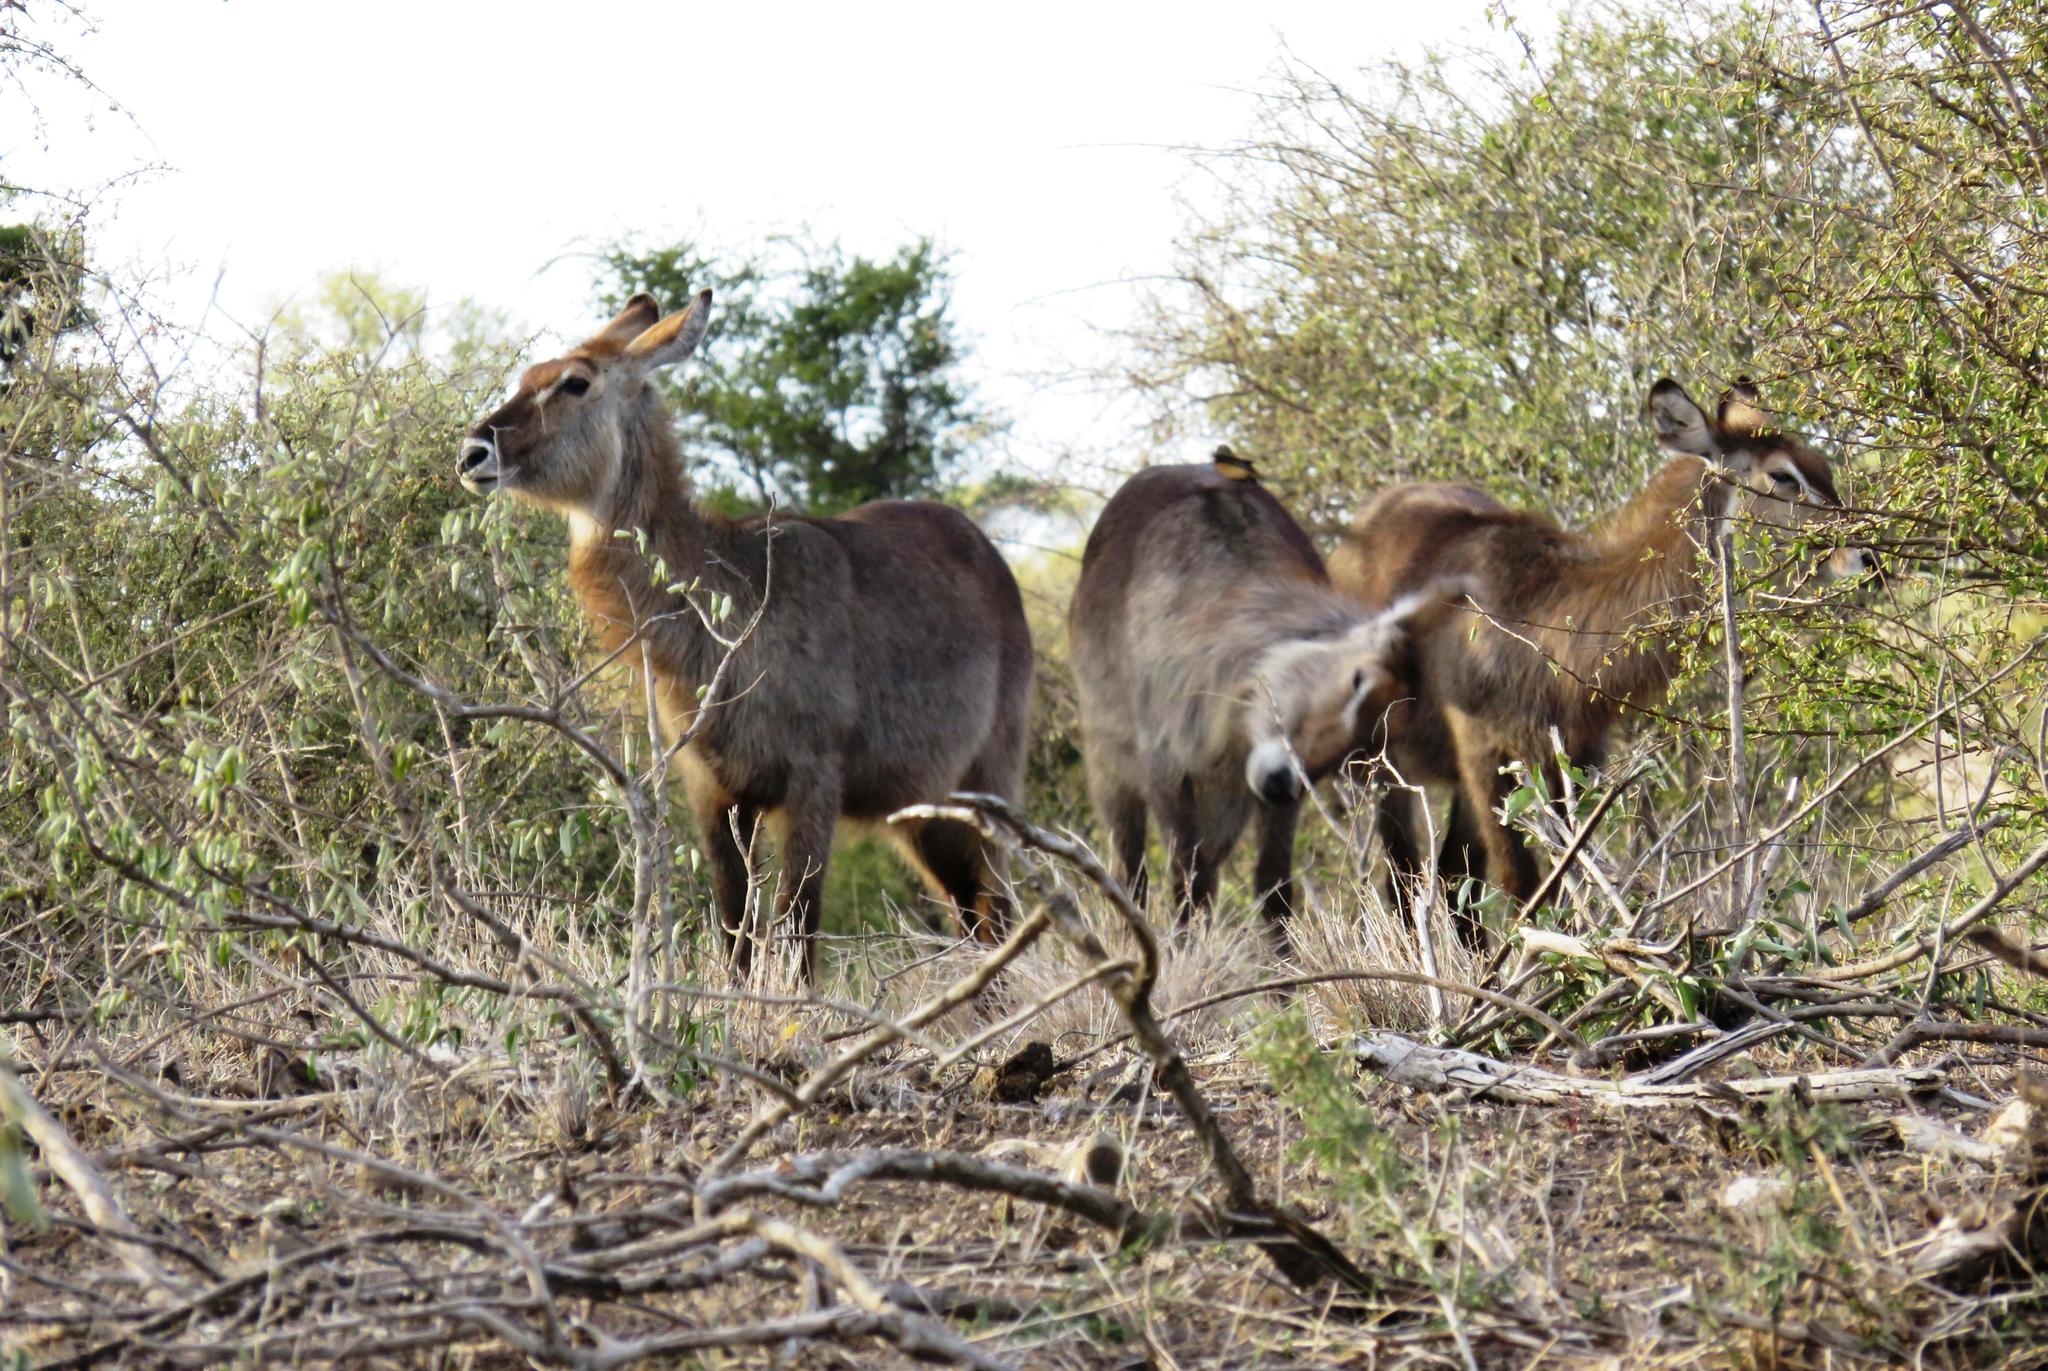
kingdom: Animalia
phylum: Chordata
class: Mammalia
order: Artiodactyla
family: Bovidae
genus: Kobus
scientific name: Kobus ellipsiprymnus
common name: Waterbuck
